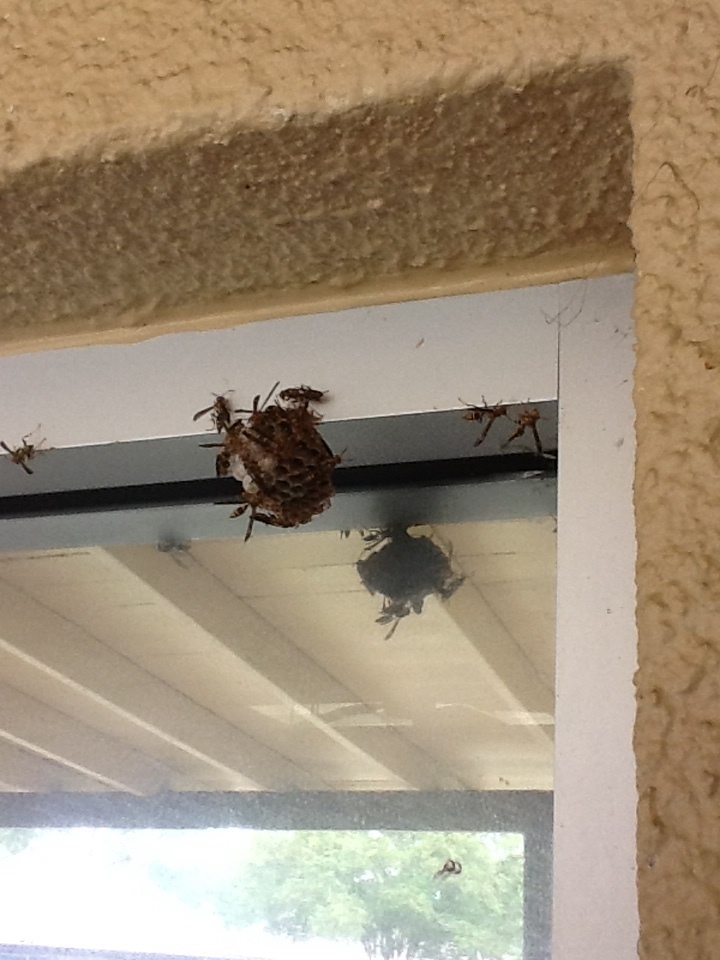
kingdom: Animalia
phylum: Arthropoda
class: Insecta
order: Hymenoptera
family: Pompilidae
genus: Aphanilopterus
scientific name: Aphanilopterus
